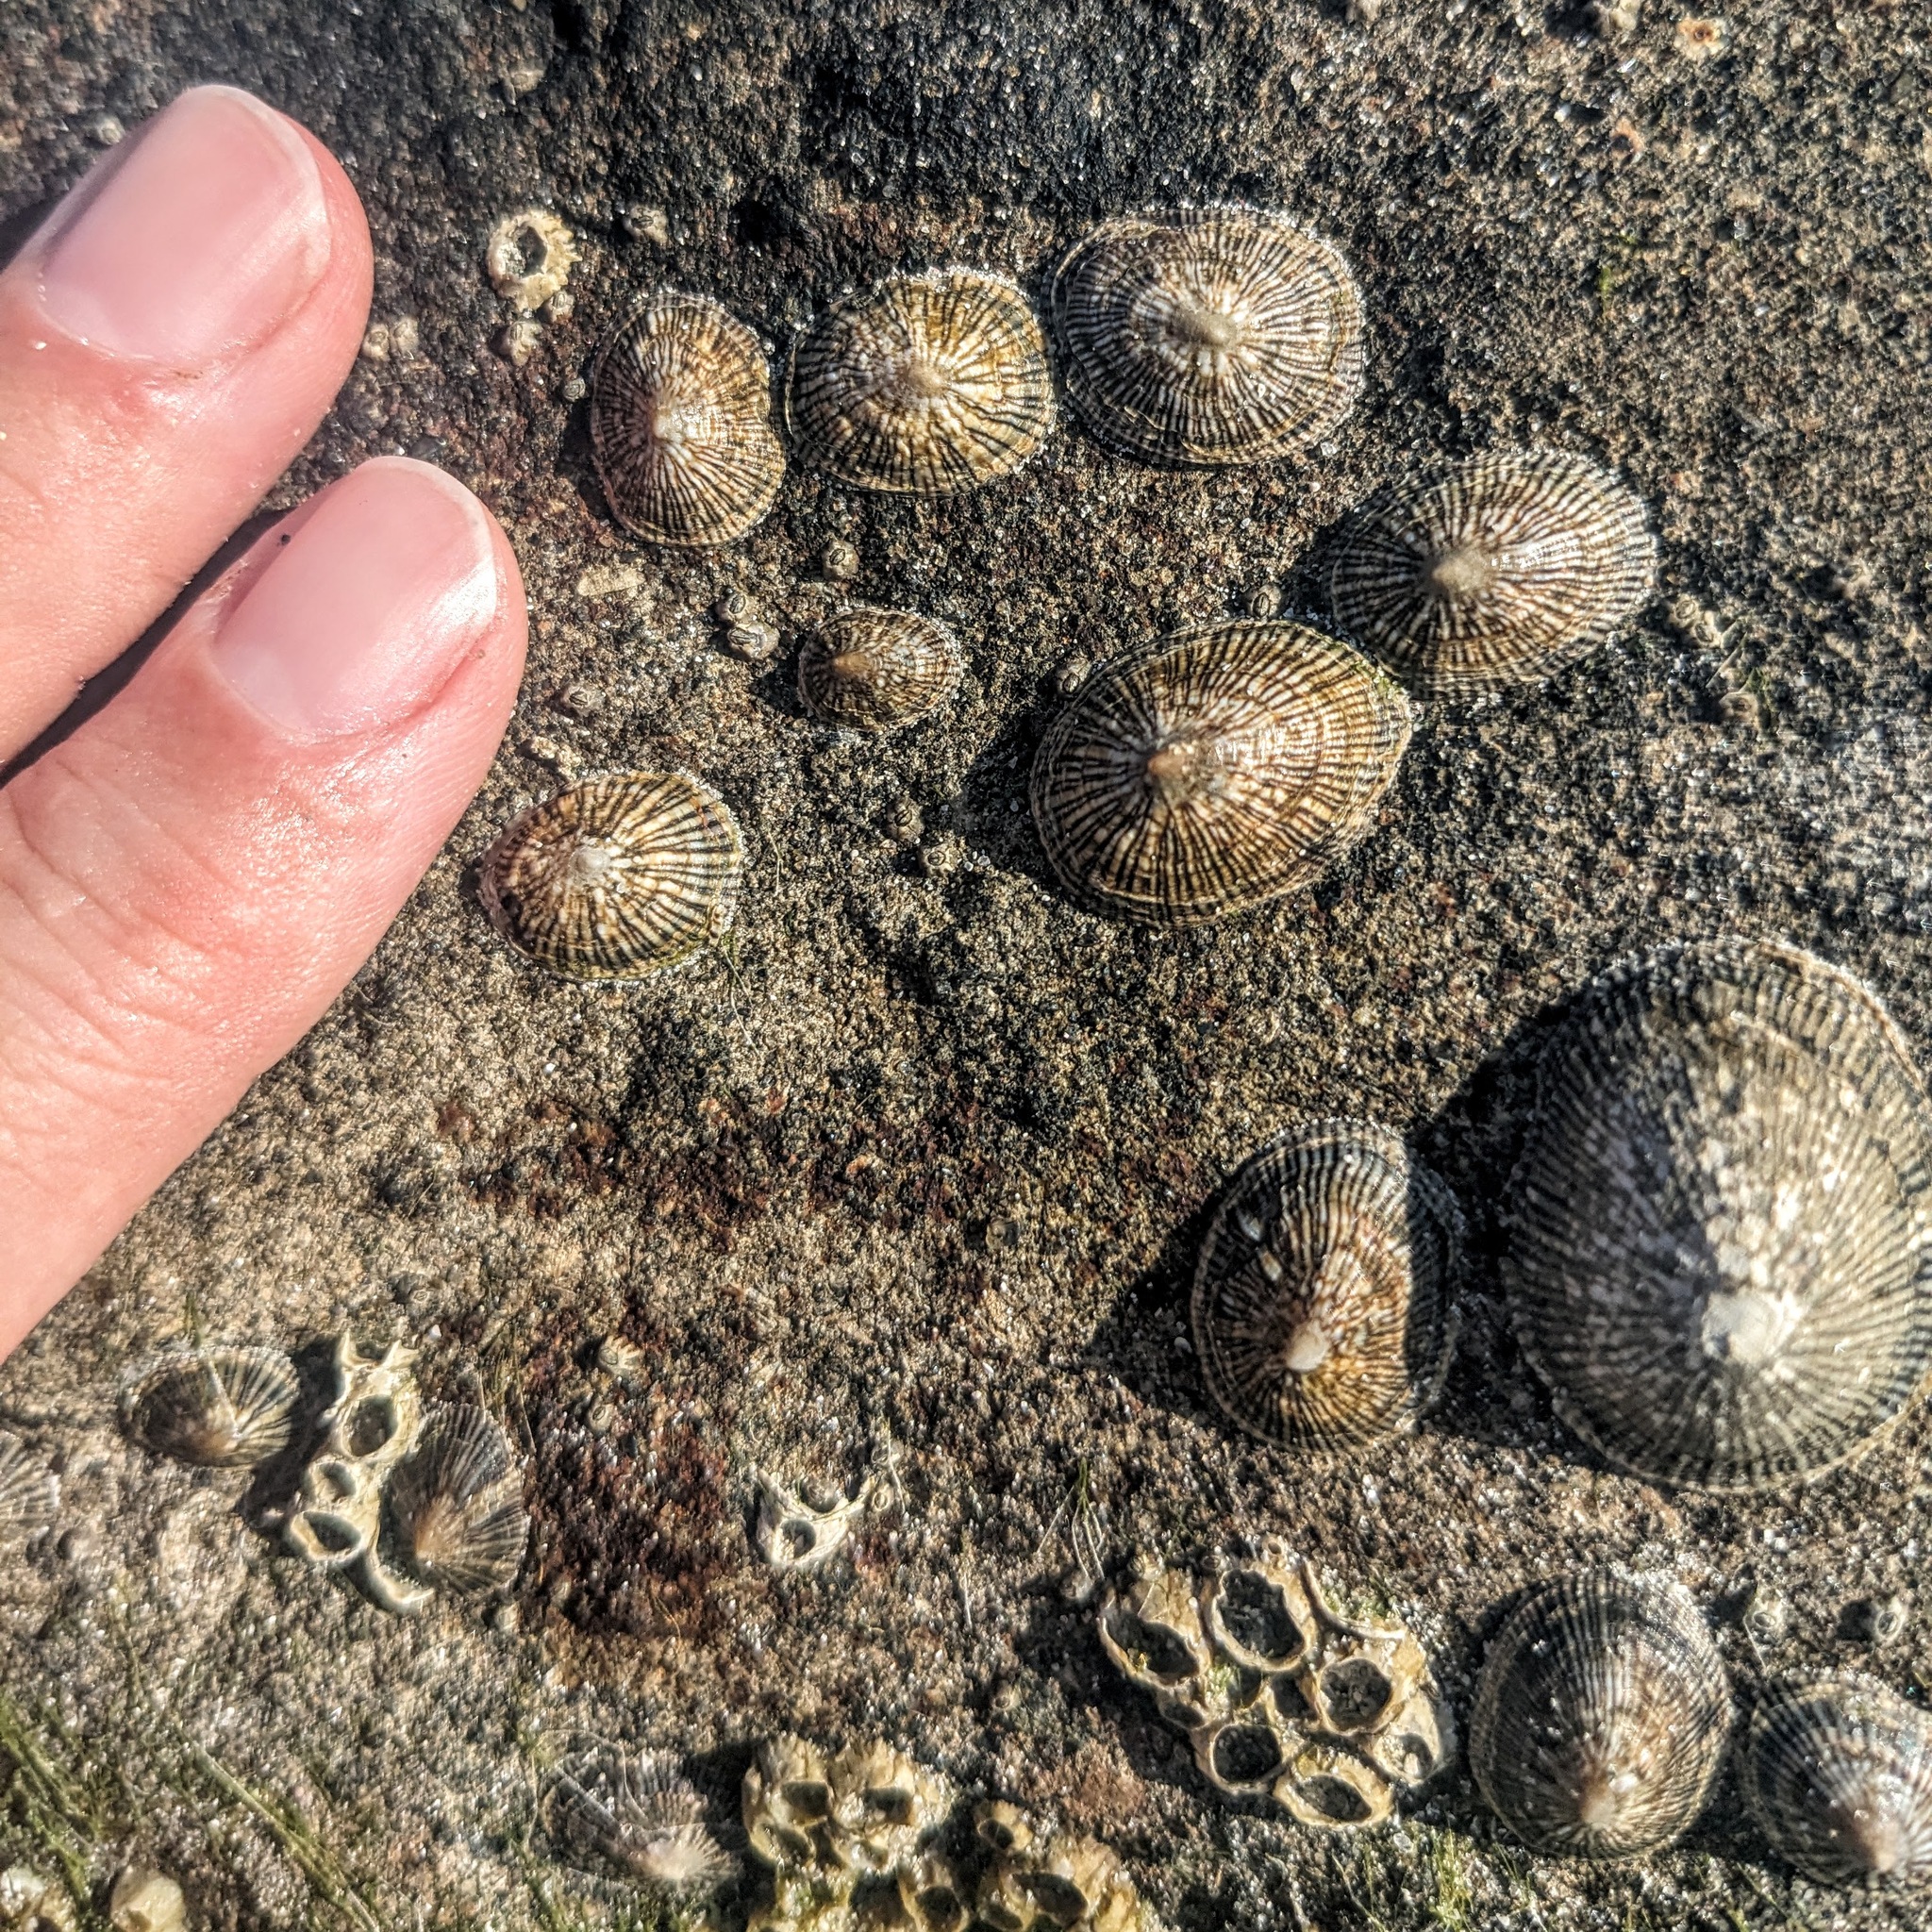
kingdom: Animalia
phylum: Mollusca
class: Gastropoda
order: Siphonariida
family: Siphonariidae
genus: Siphonaria
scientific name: Siphonaria naufragum
